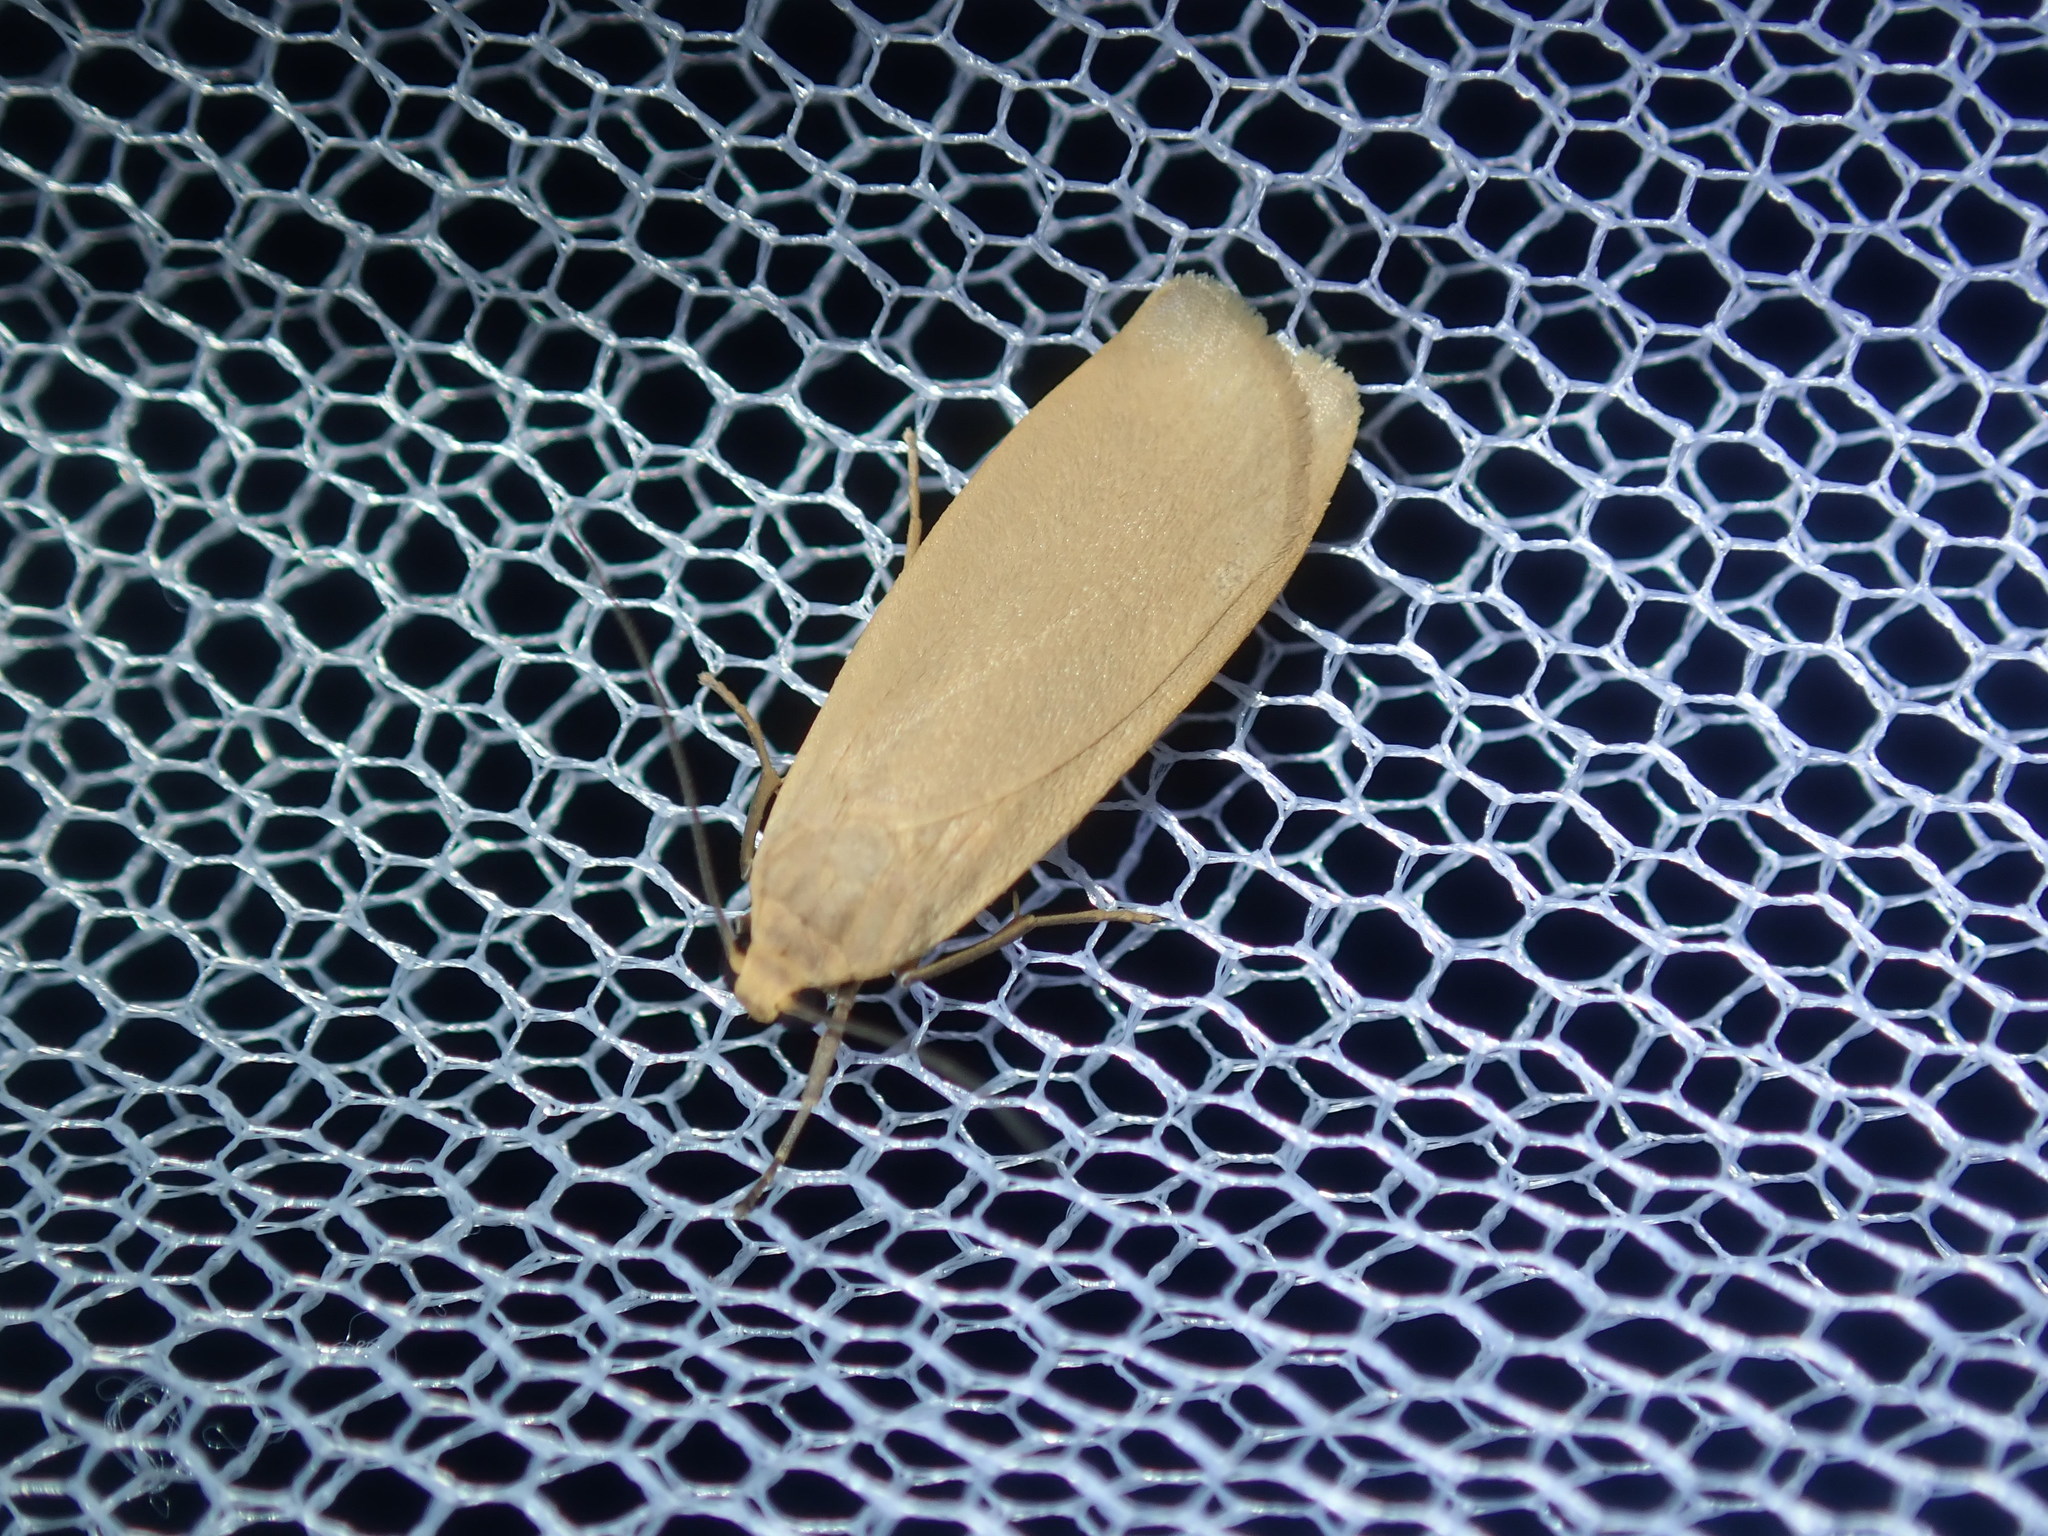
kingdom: Animalia
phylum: Arthropoda
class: Insecta
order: Lepidoptera
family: Erebidae
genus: Eilema
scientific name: Eilema plana
